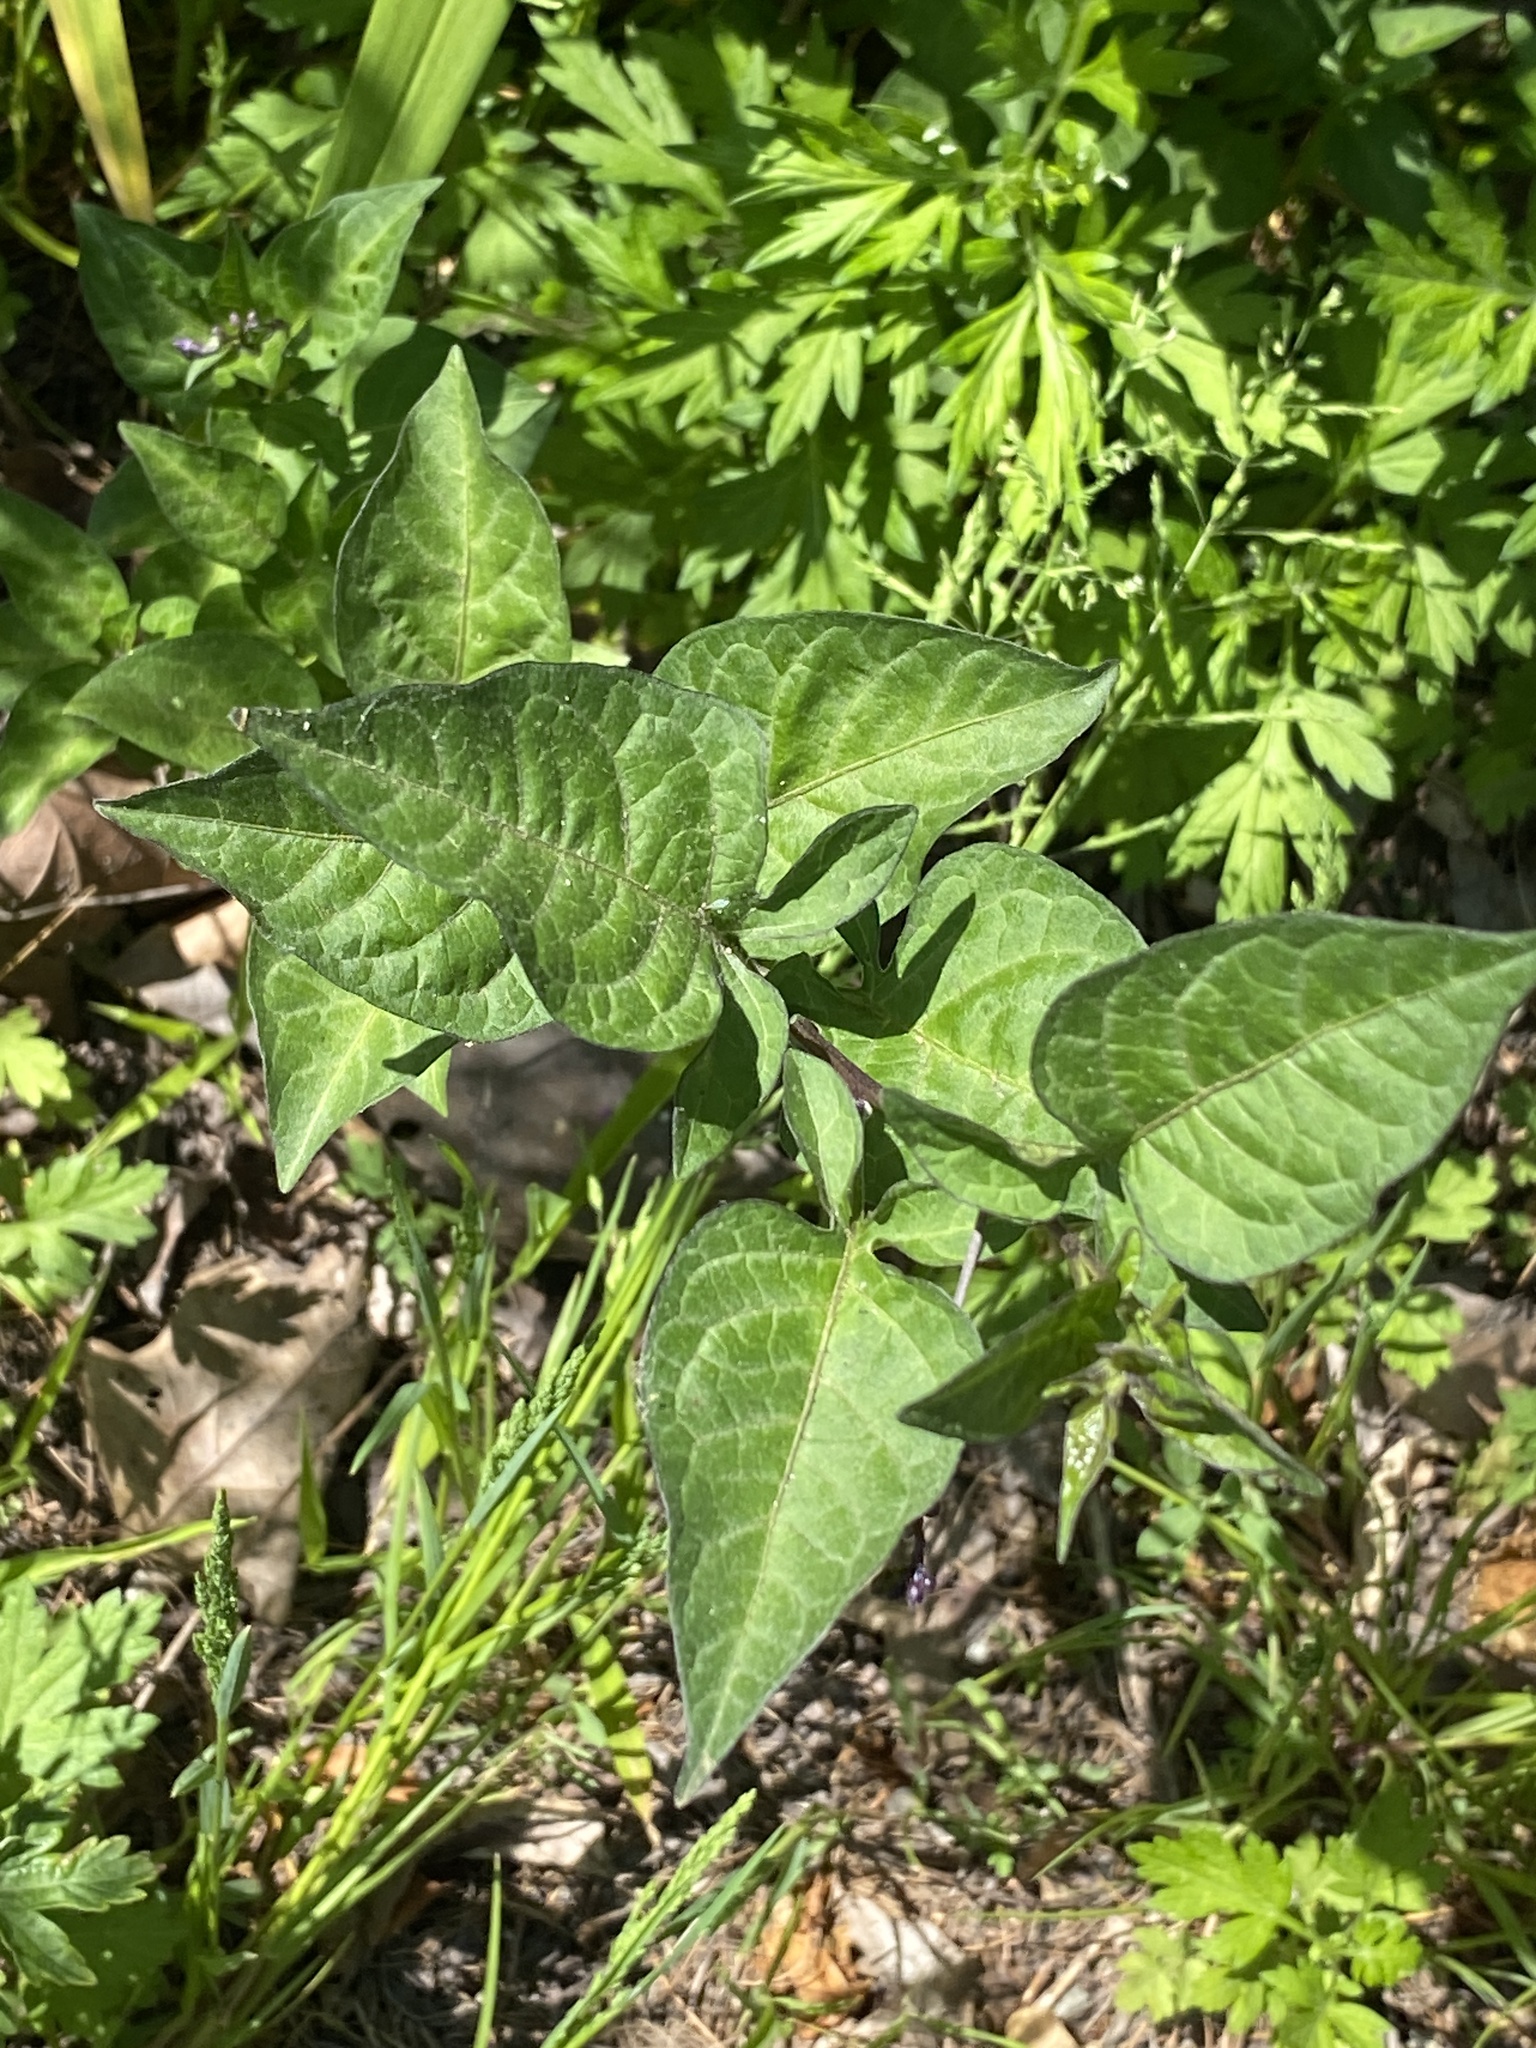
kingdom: Plantae
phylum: Tracheophyta
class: Magnoliopsida
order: Solanales
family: Solanaceae
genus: Solanum
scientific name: Solanum dulcamara
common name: Climbing nightshade
